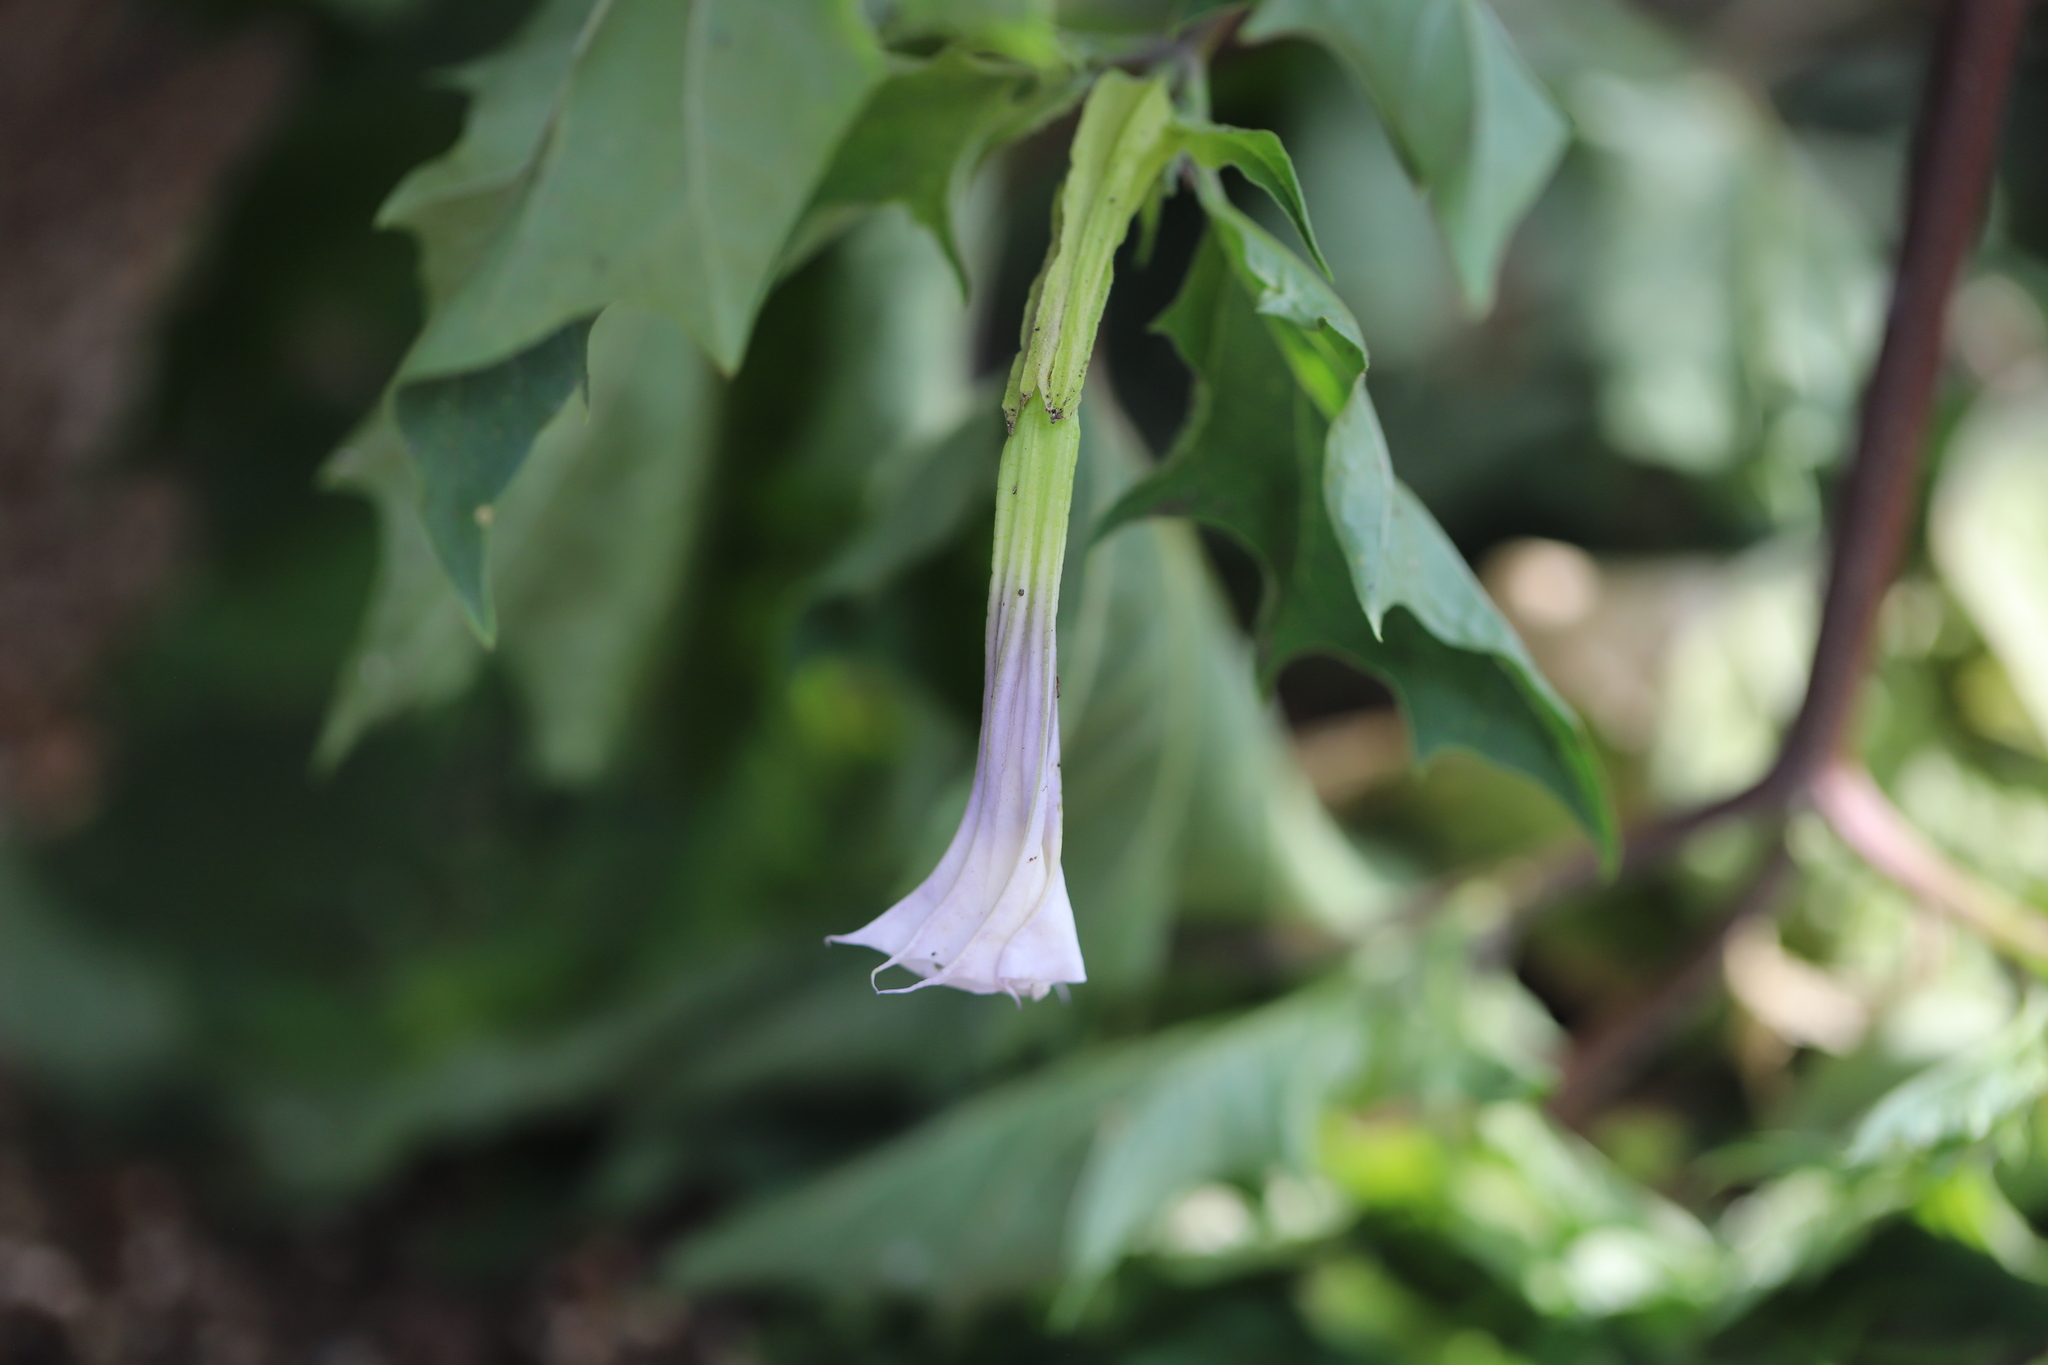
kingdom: Plantae
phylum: Tracheophyta
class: Magnoliopsida
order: Solanales
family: Solanaceae
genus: Datura
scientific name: Datura stramonium
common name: Thorn-apple
